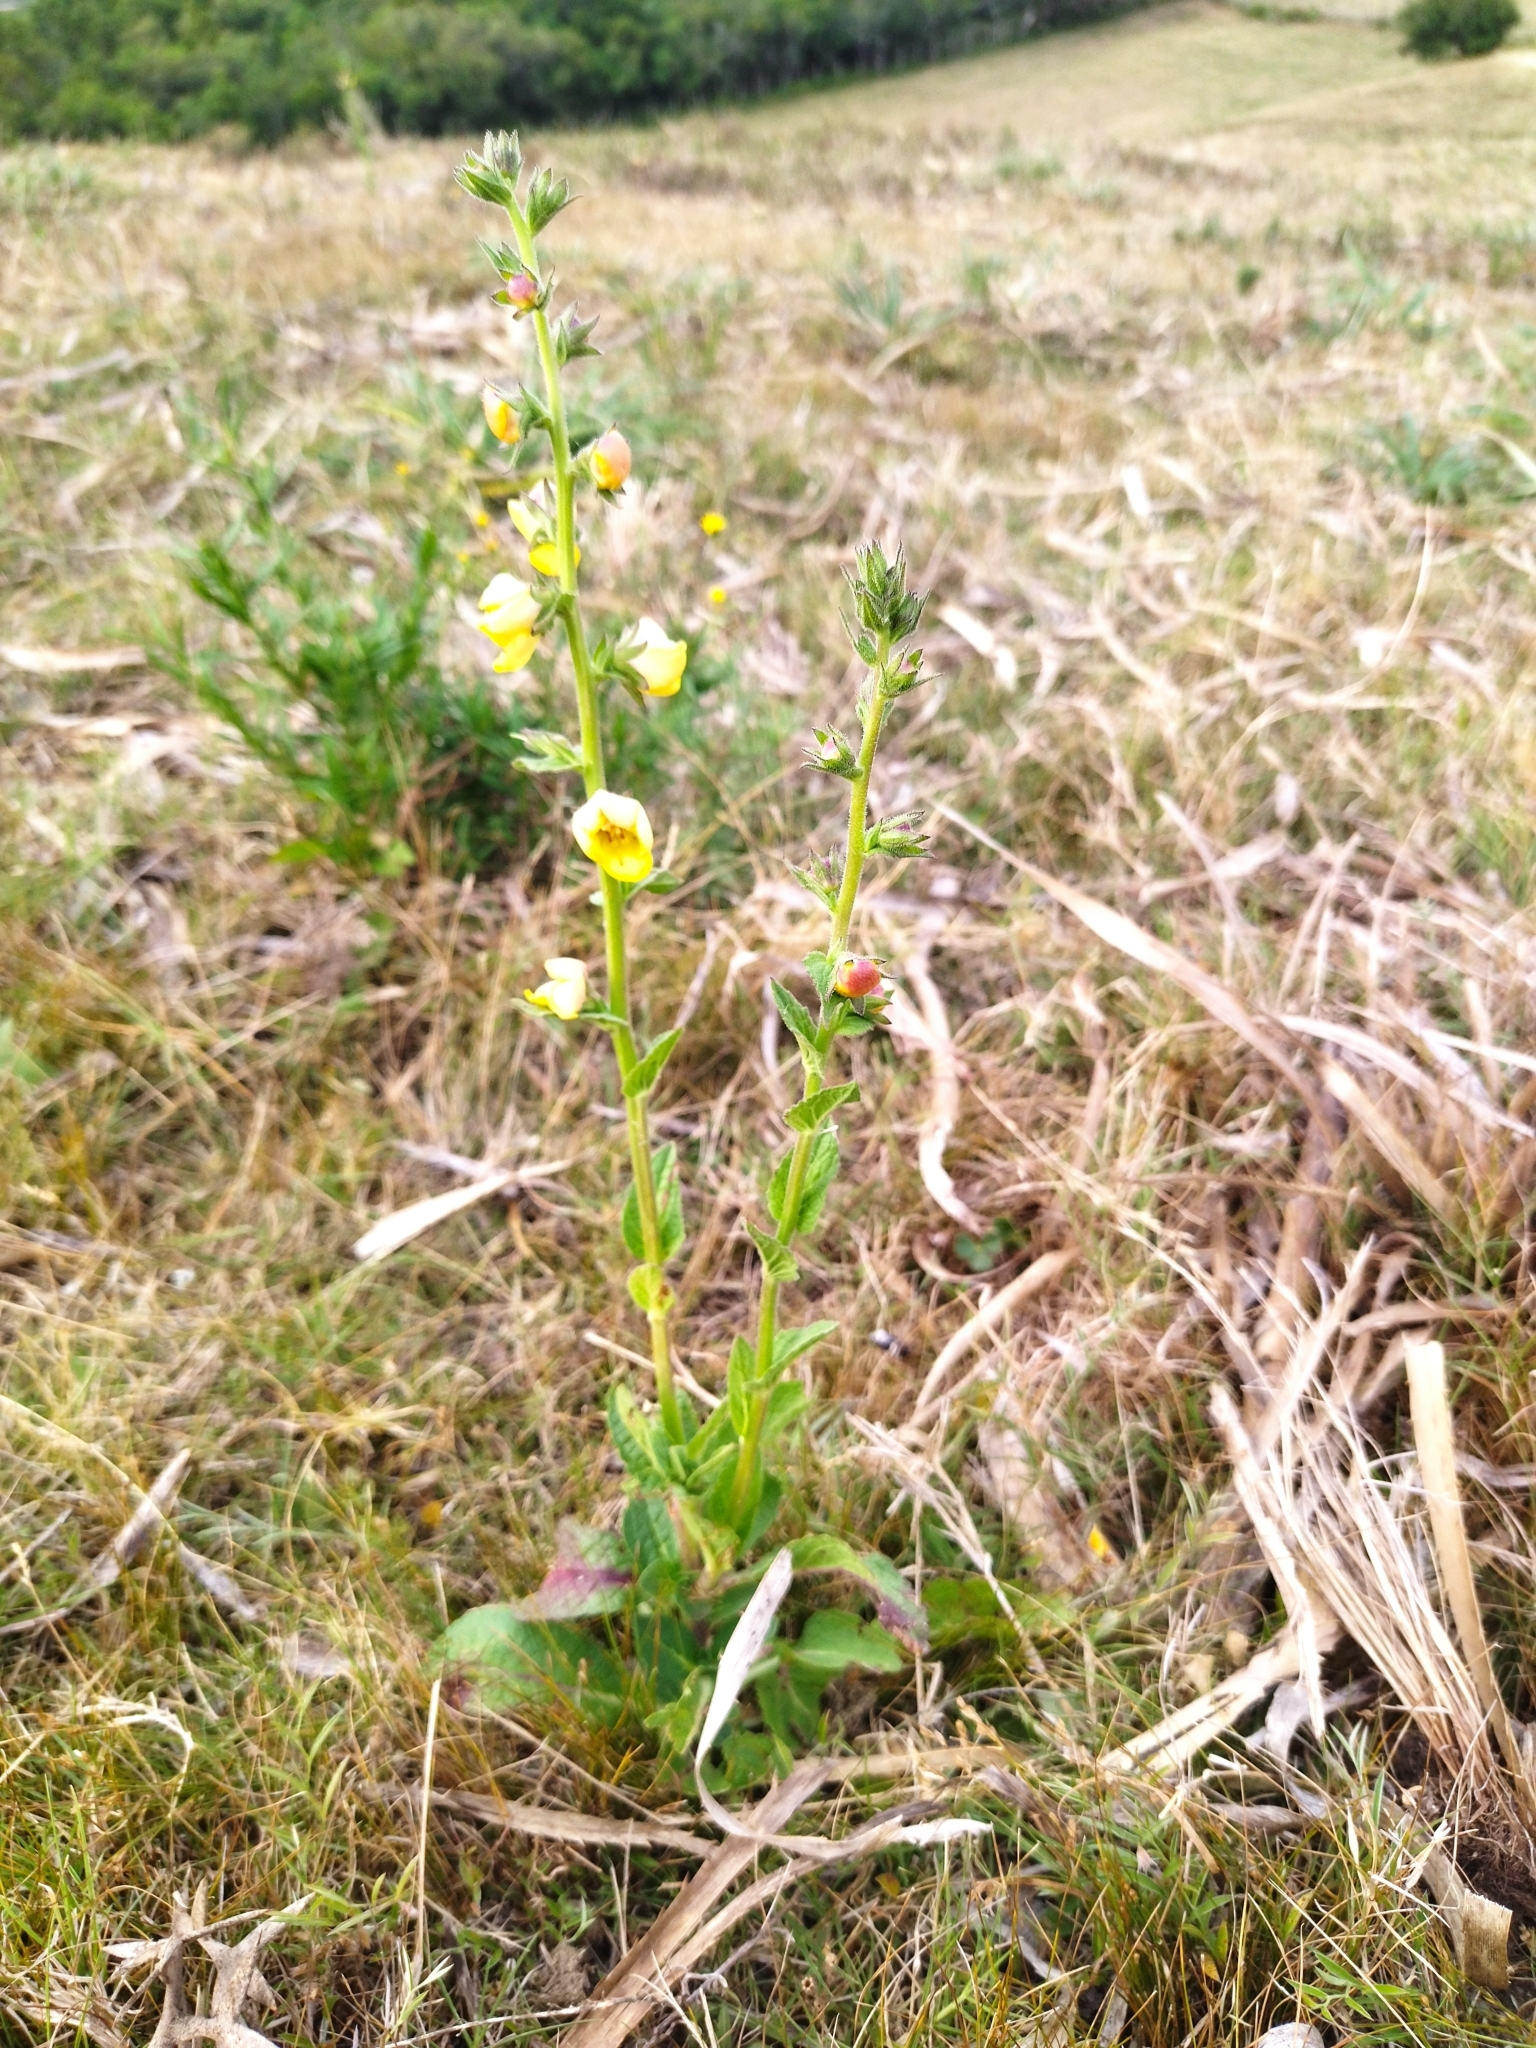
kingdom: Plantae
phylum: Tracheophyta
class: Magnoliopsida
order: Lamiales
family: Scrophulariaceae
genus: Verbascum
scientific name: Verbascum virgatum
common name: Twiggy mullein
